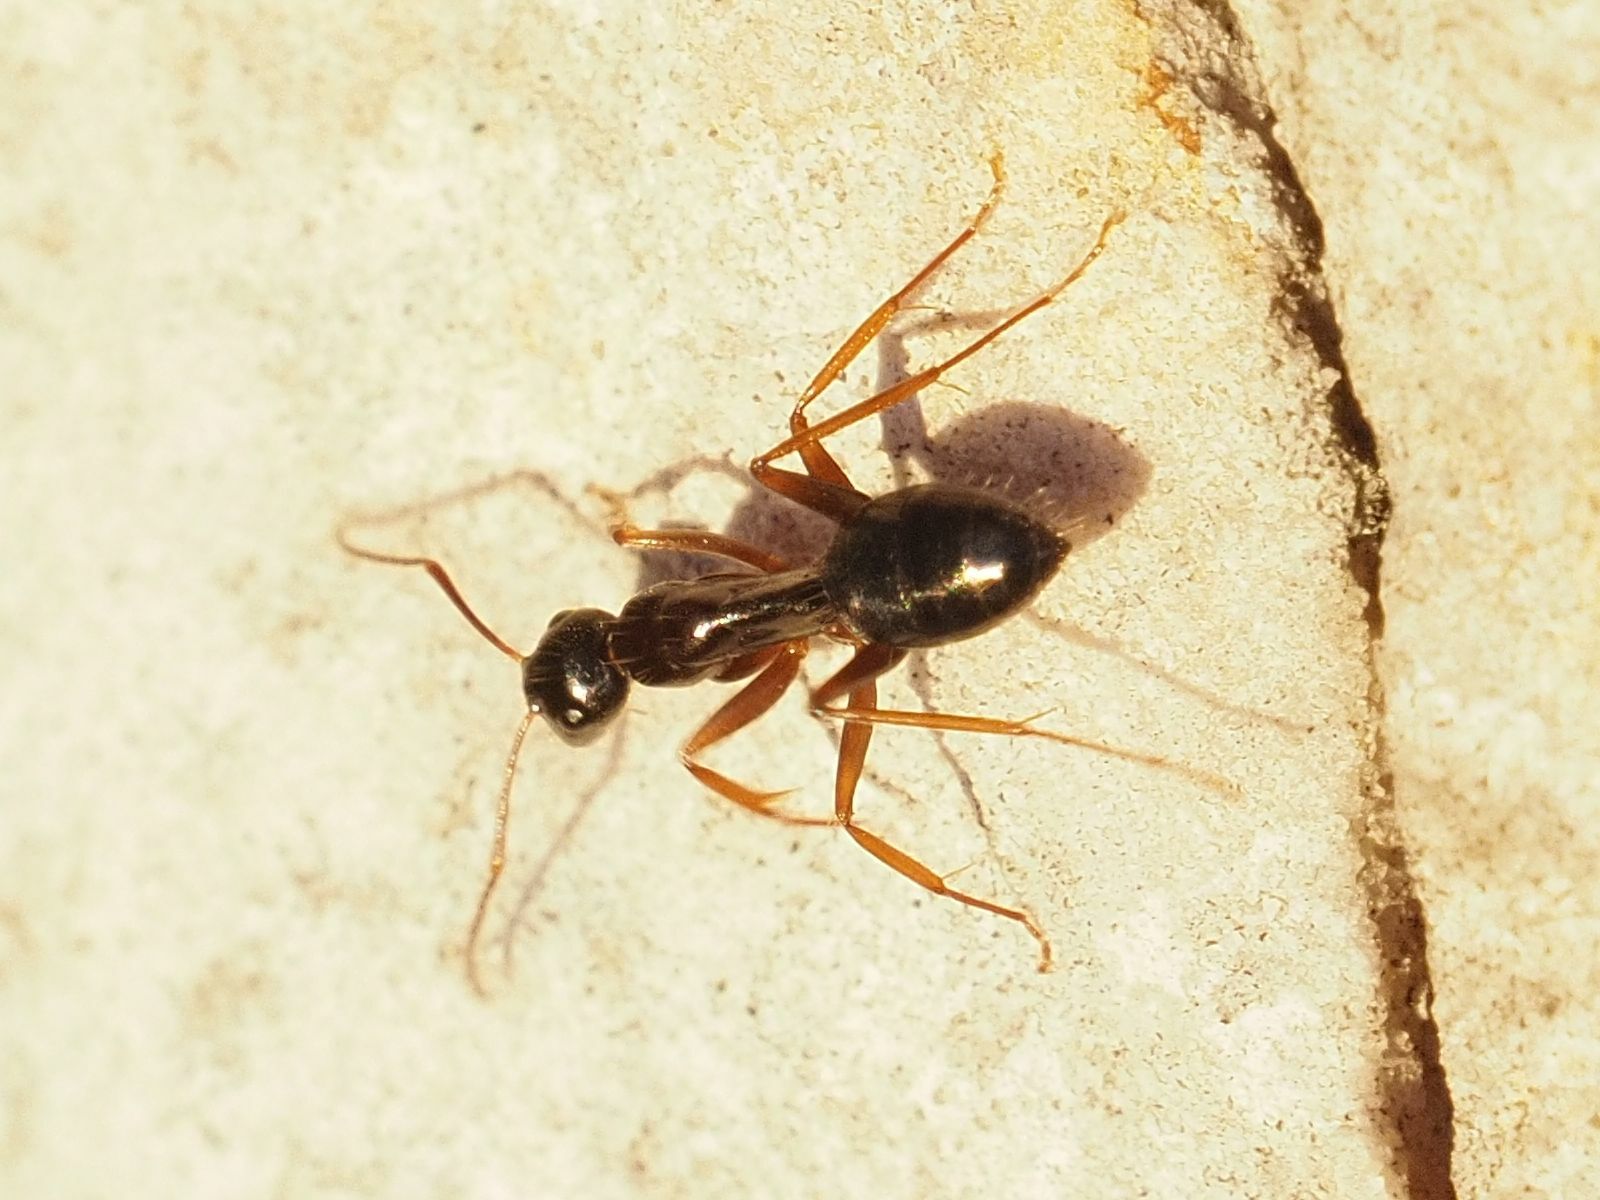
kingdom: Animalia
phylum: Arthropoda
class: Insecta
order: Hymenoptera
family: Formicidae
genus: Camponotus
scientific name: Camponotus fallax
